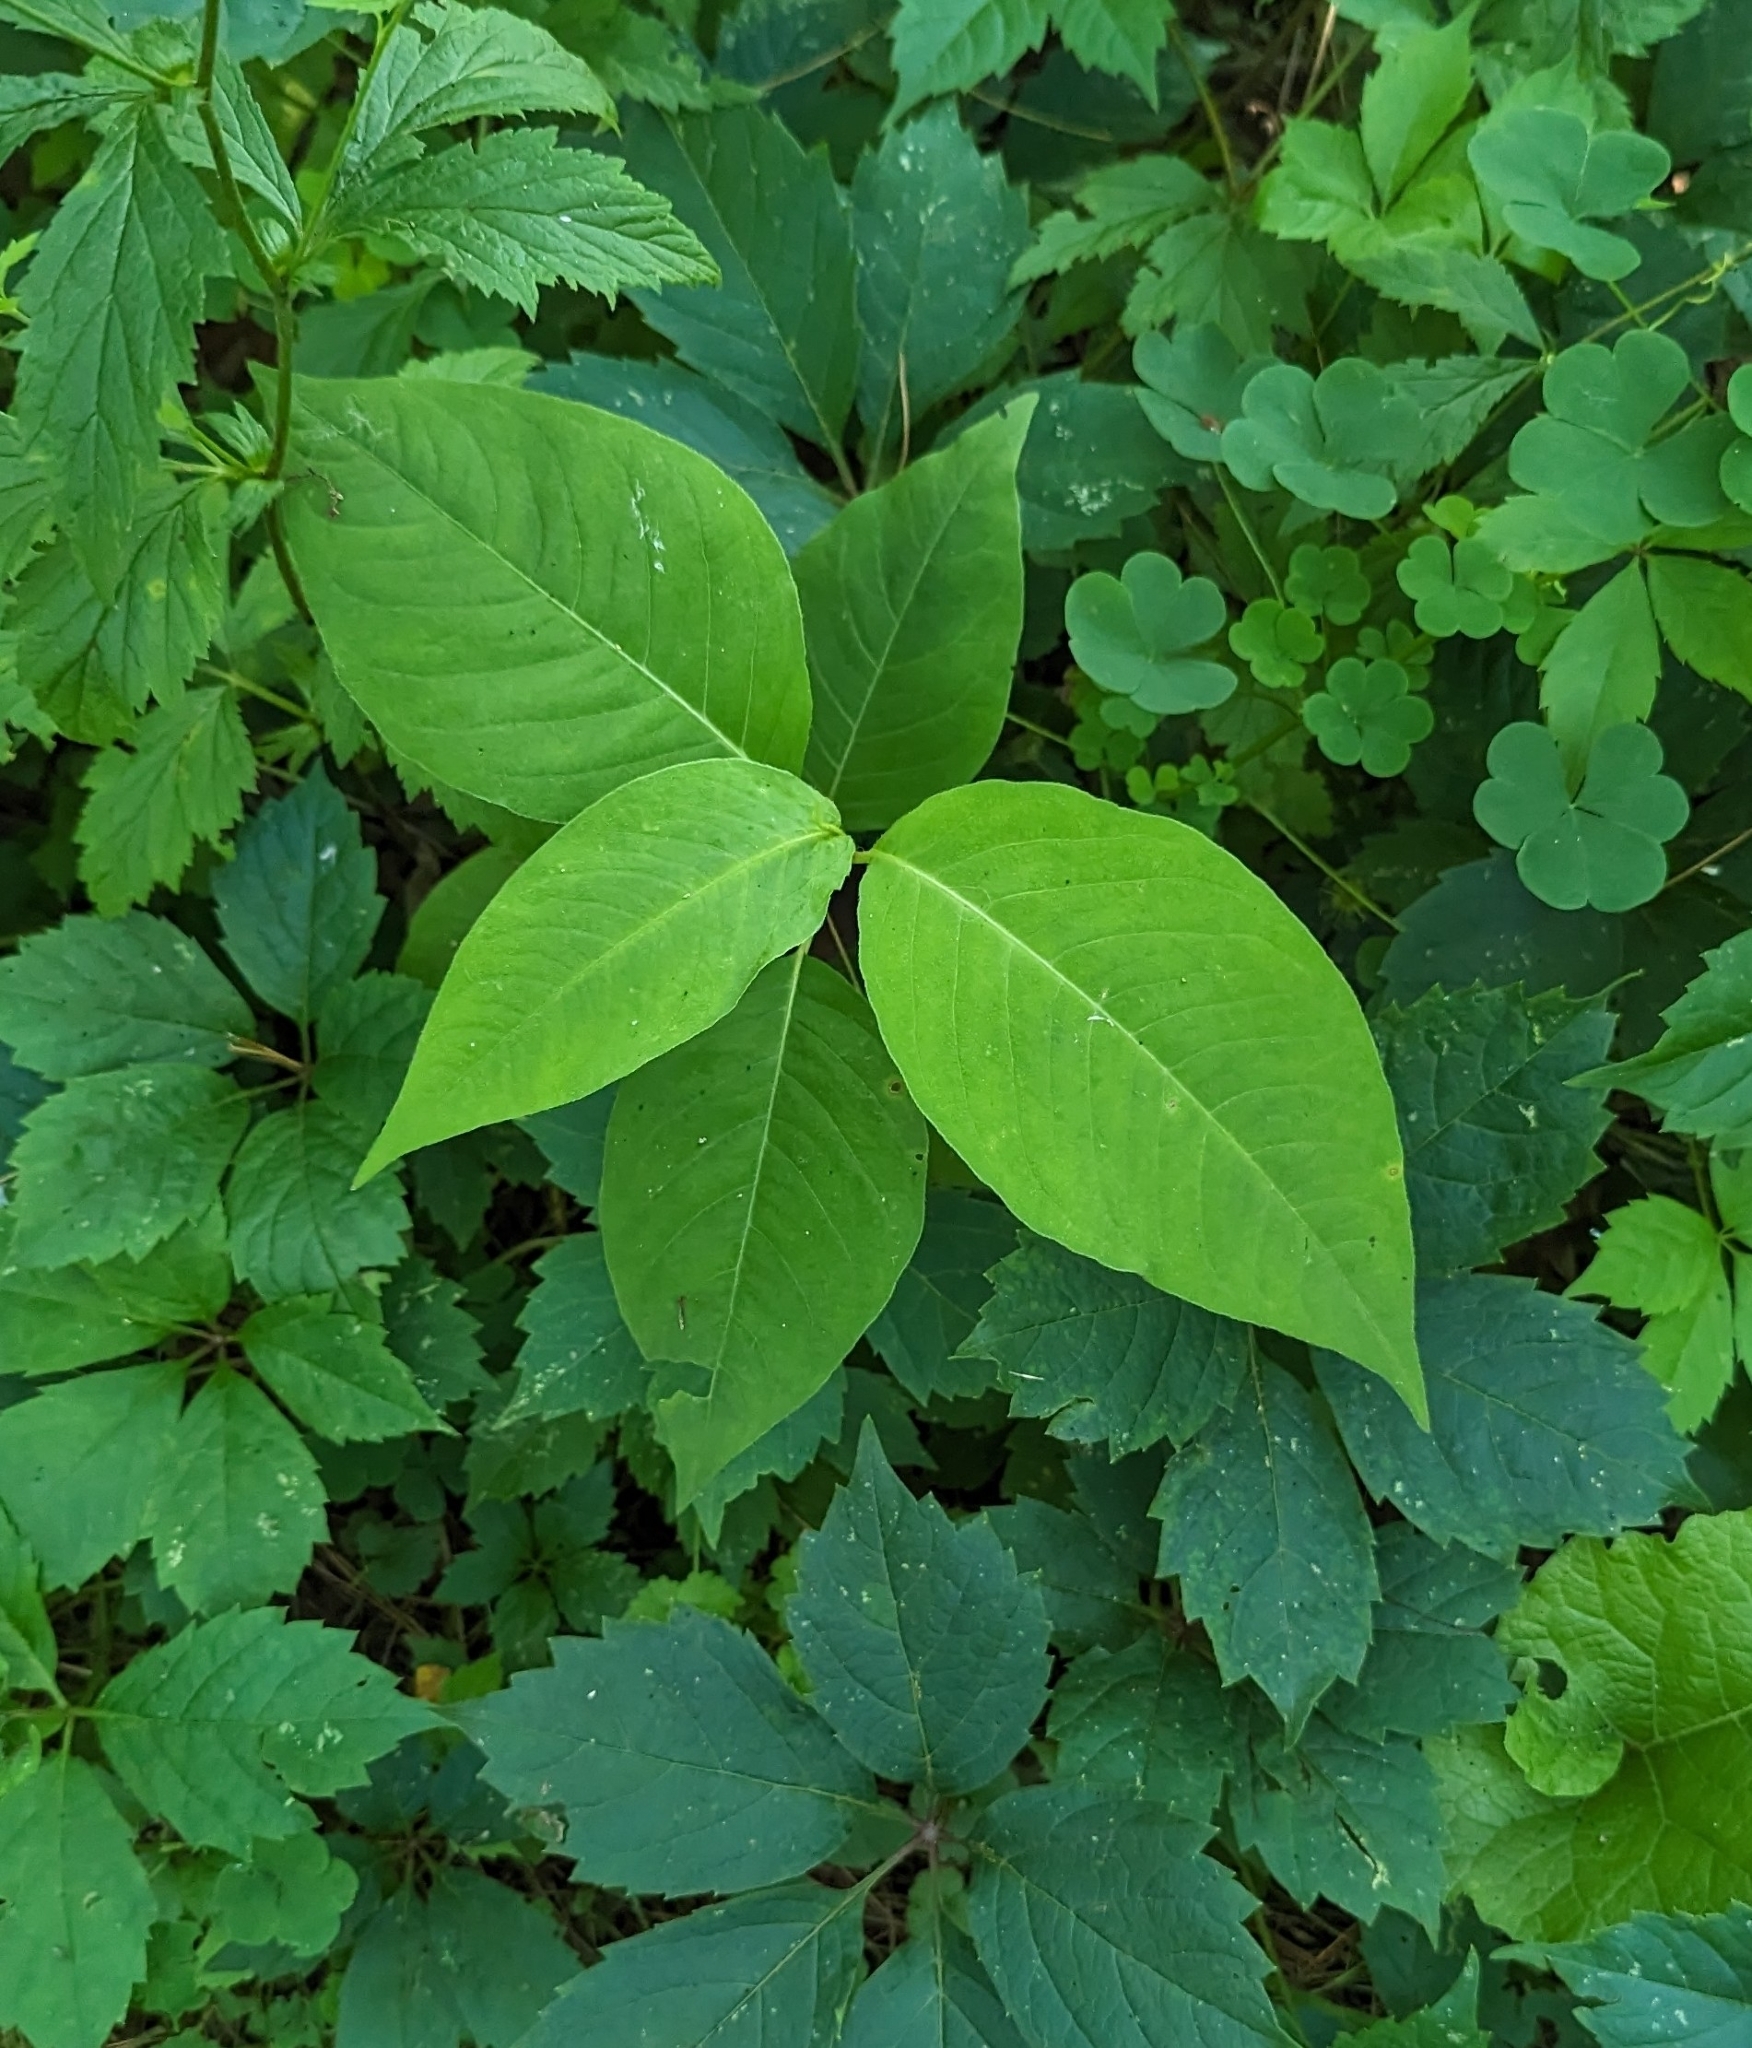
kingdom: Plantae
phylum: Tracheophyta
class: Magnoliopsida
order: Caryophyllales
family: Polygonaceae
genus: Persicaria
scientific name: Persicaria virginiana
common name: Jumpseed
